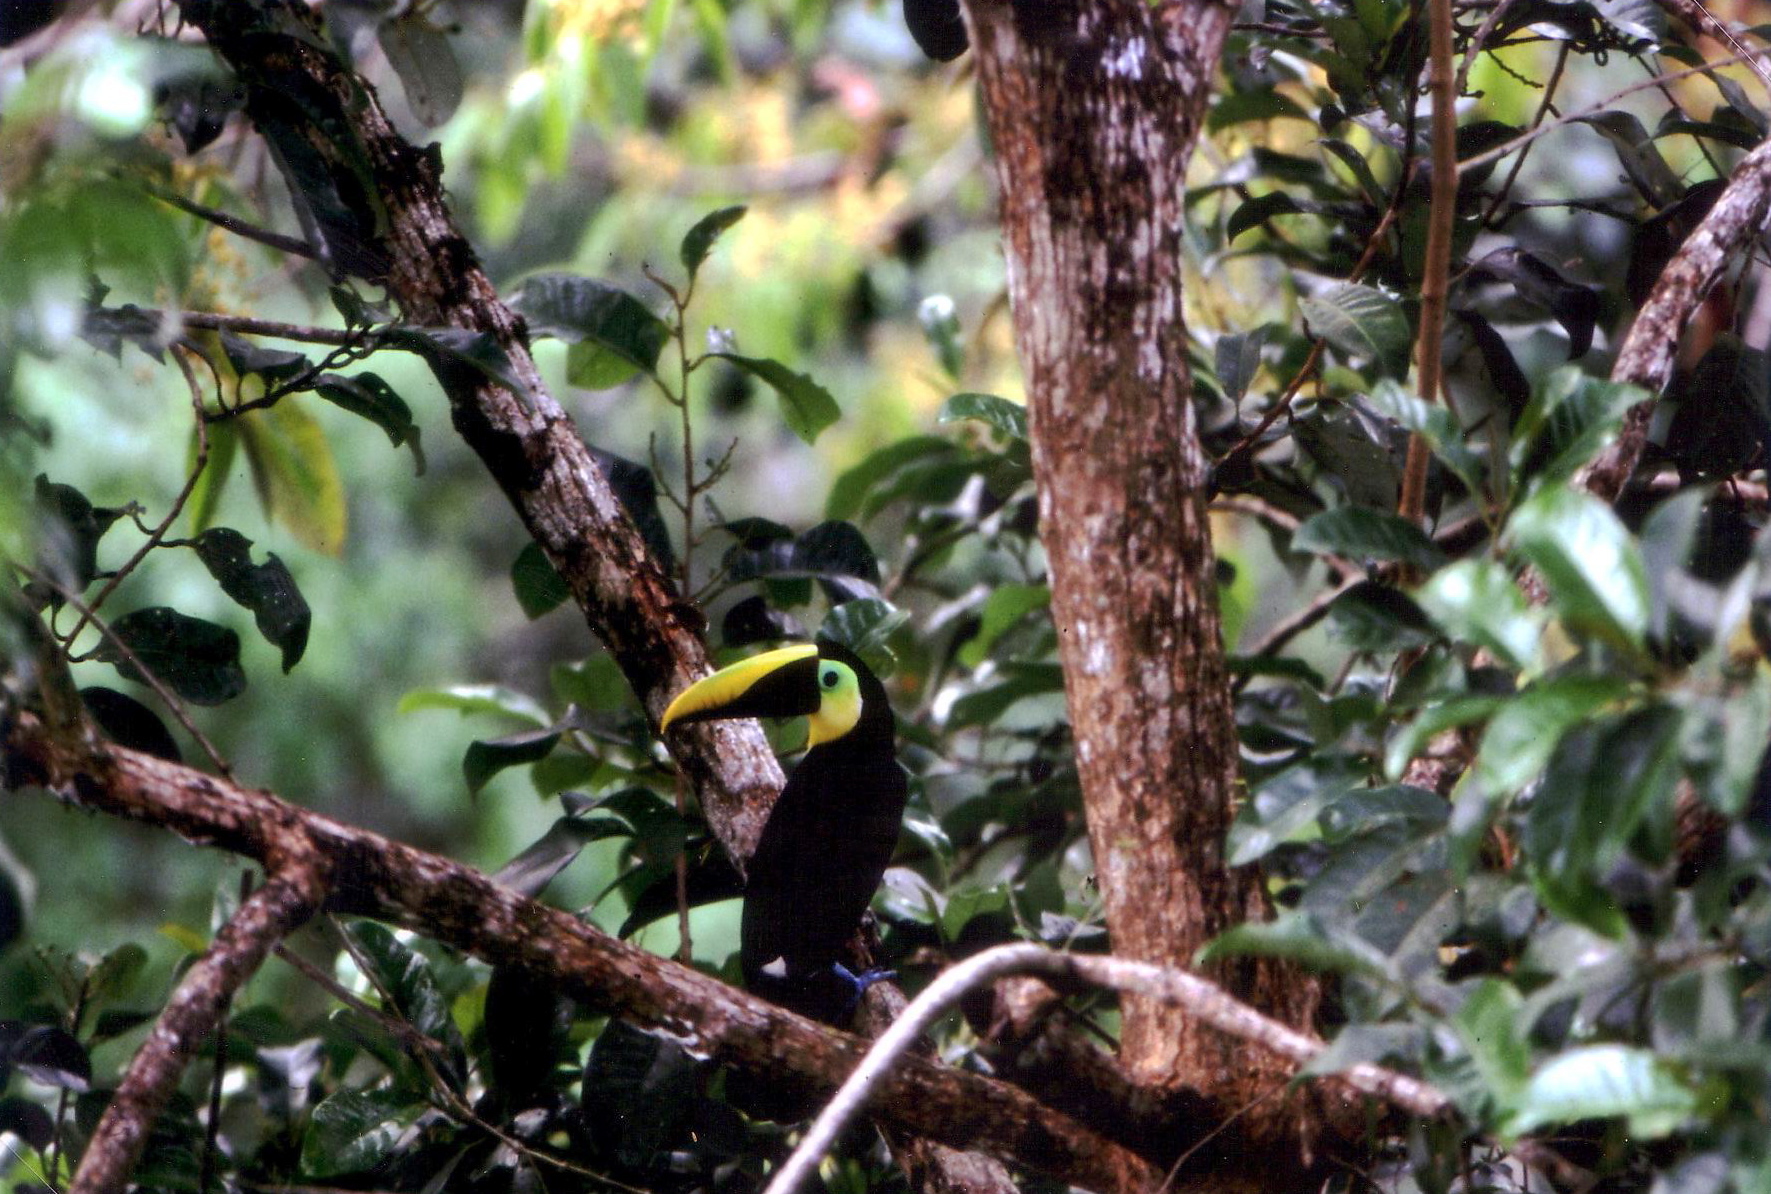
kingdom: Animalia
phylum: Chordata
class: Aves
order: Piciformes
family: Ramphastidae
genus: Ramphastos
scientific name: Ramphastos ambiguus
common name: Yellow-throated toucan
